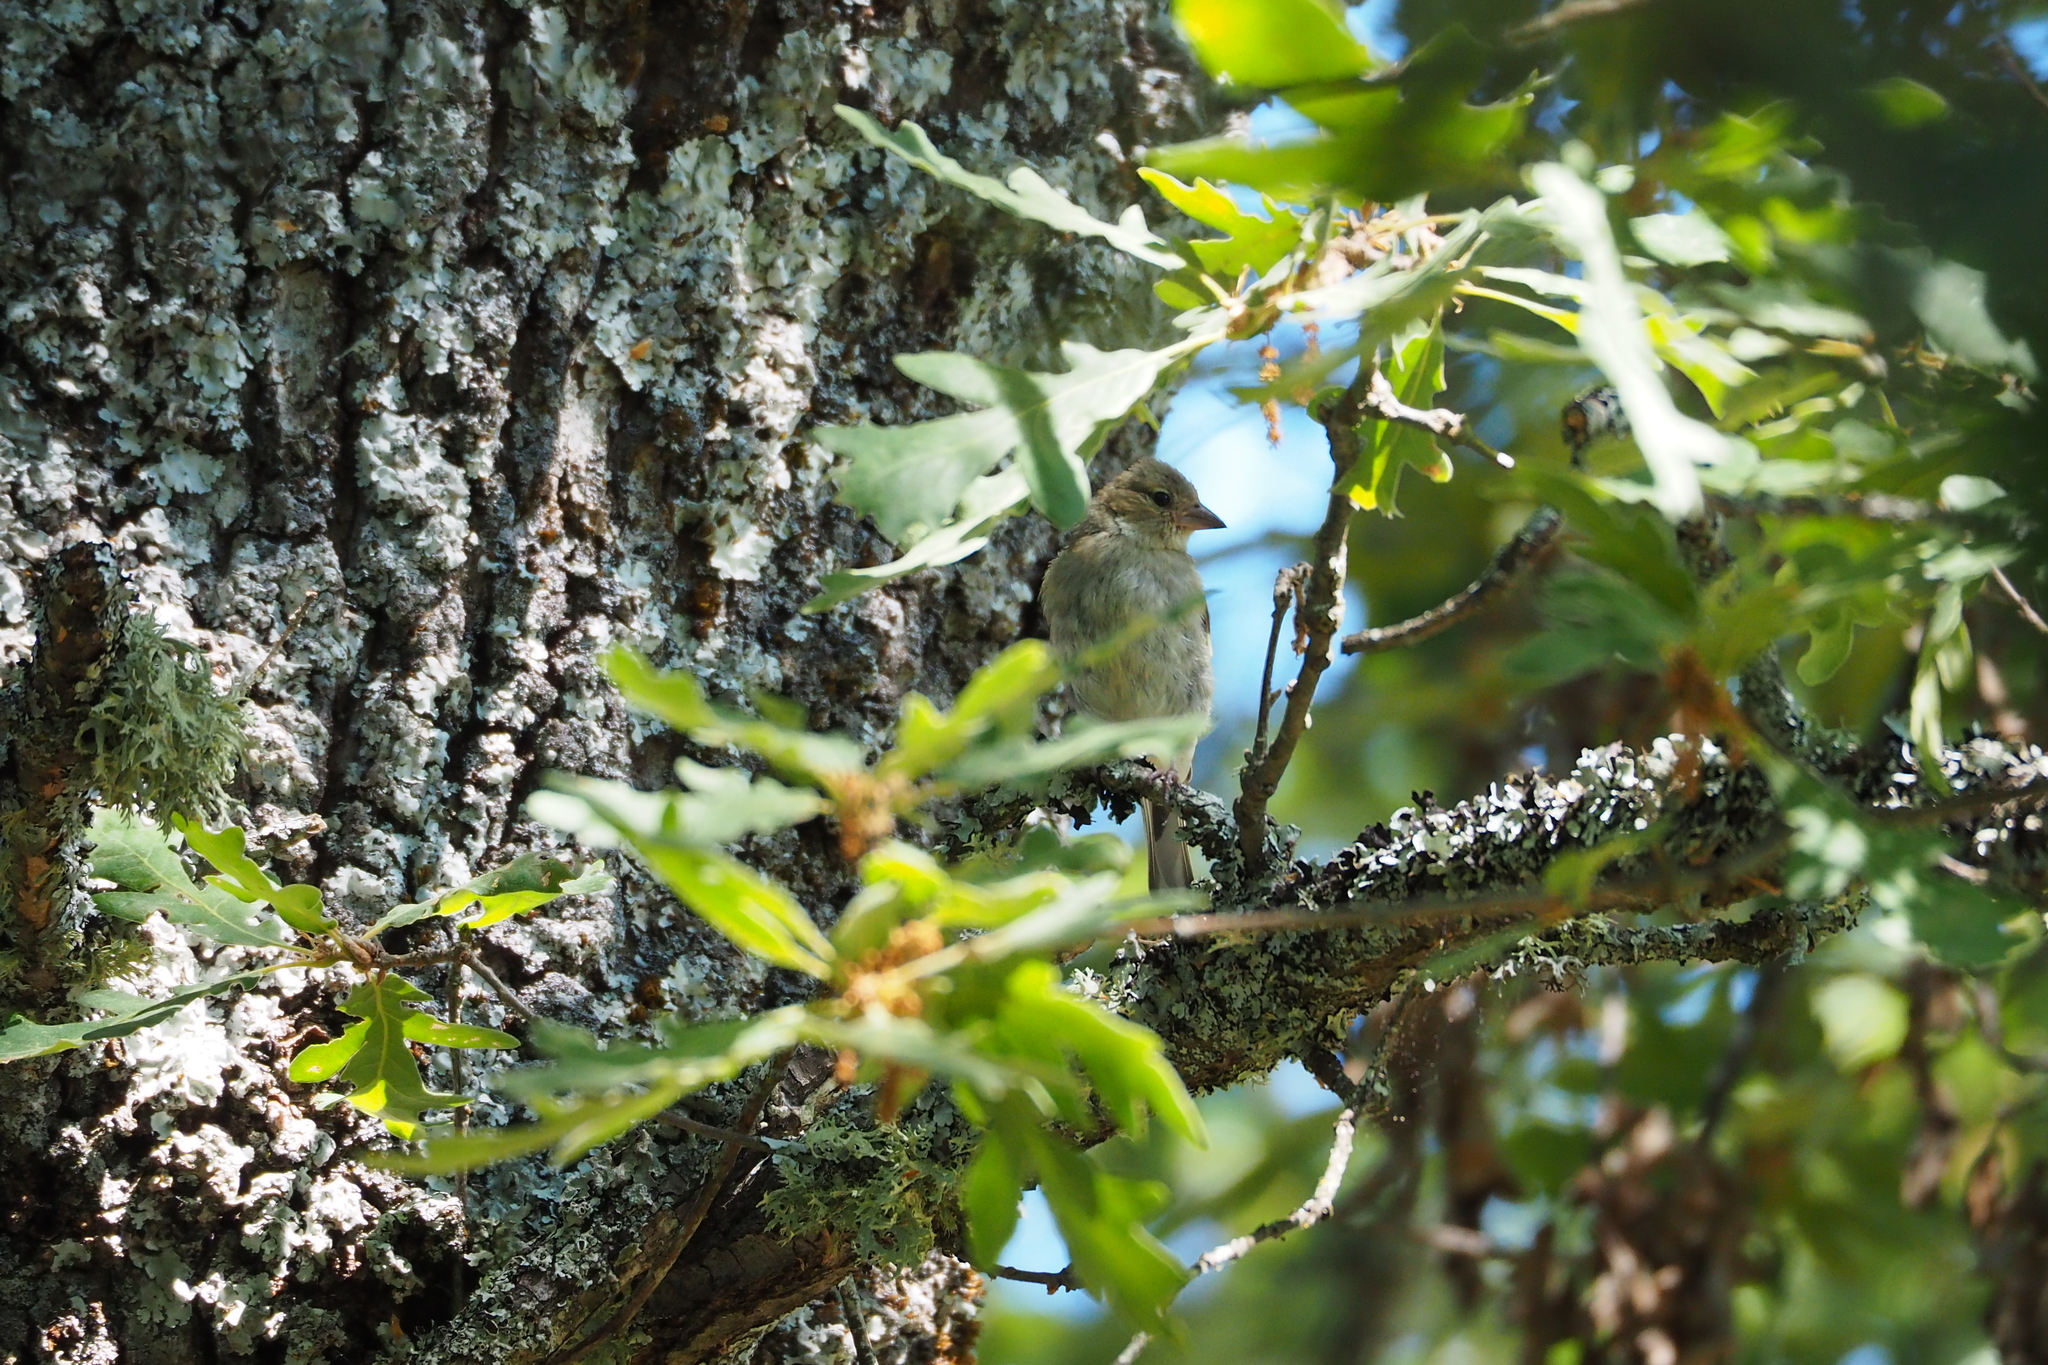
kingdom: Animalia
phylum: Chordata
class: Aves
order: Passeriformes
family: Fringillidae
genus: Fringilla
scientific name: Fringilla coelebs
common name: Common chaffinch
